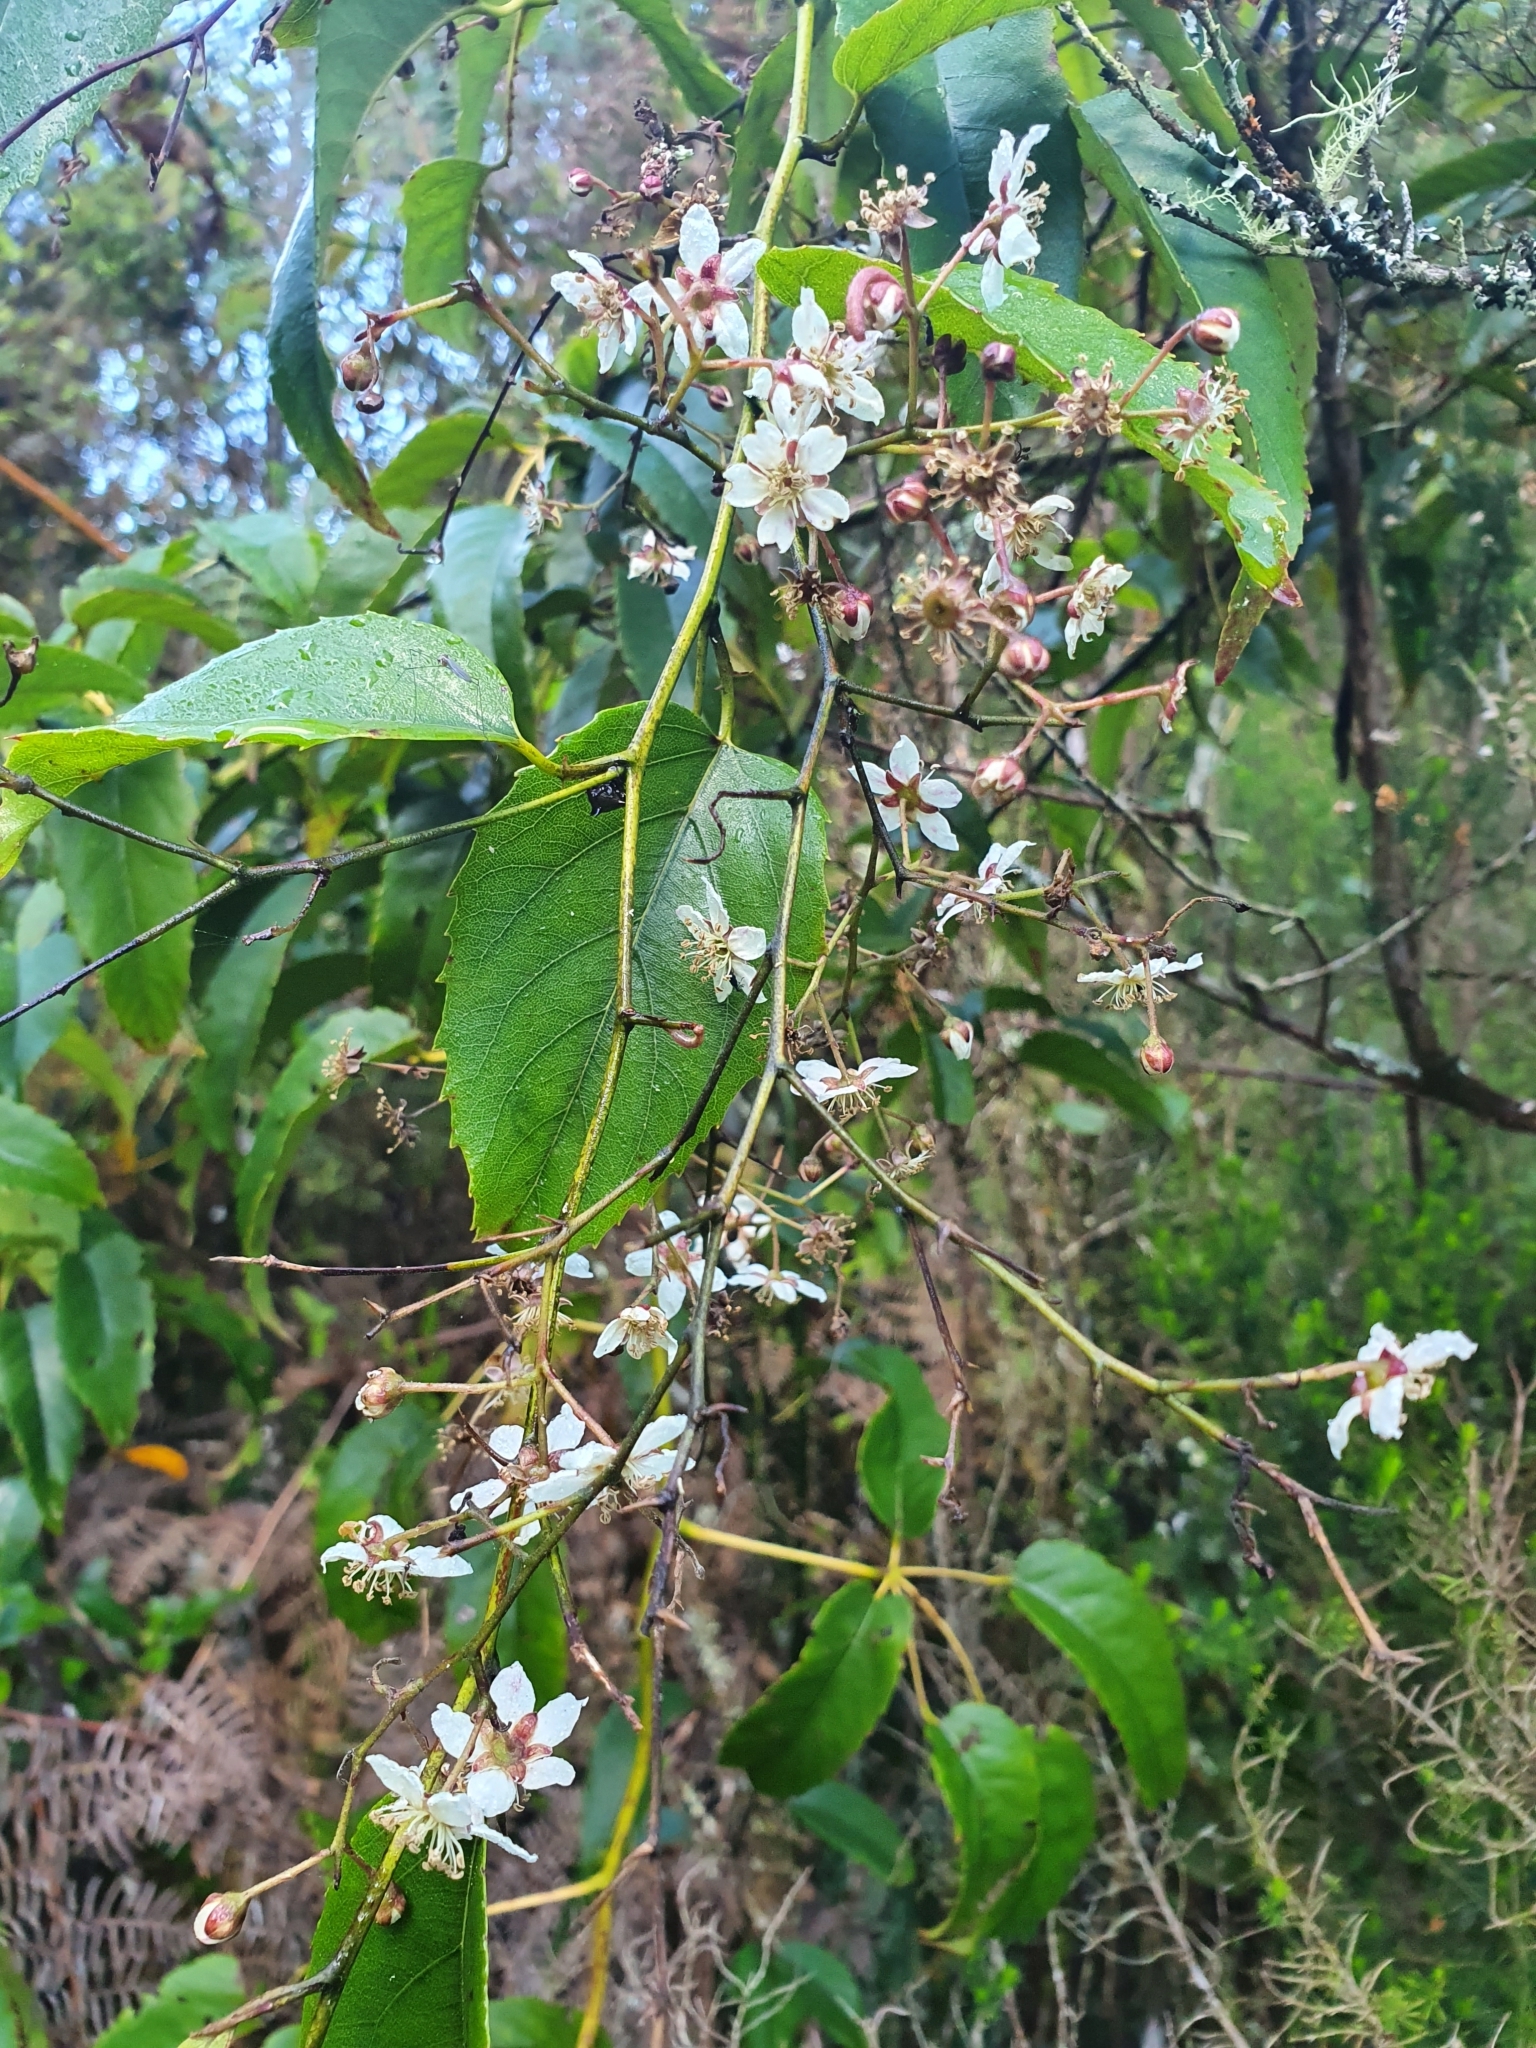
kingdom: Plantae
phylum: Tracheophyta
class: Magnoliopsida
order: Rosales
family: Rosaceae
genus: Rubus
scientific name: Rubus cissoides
